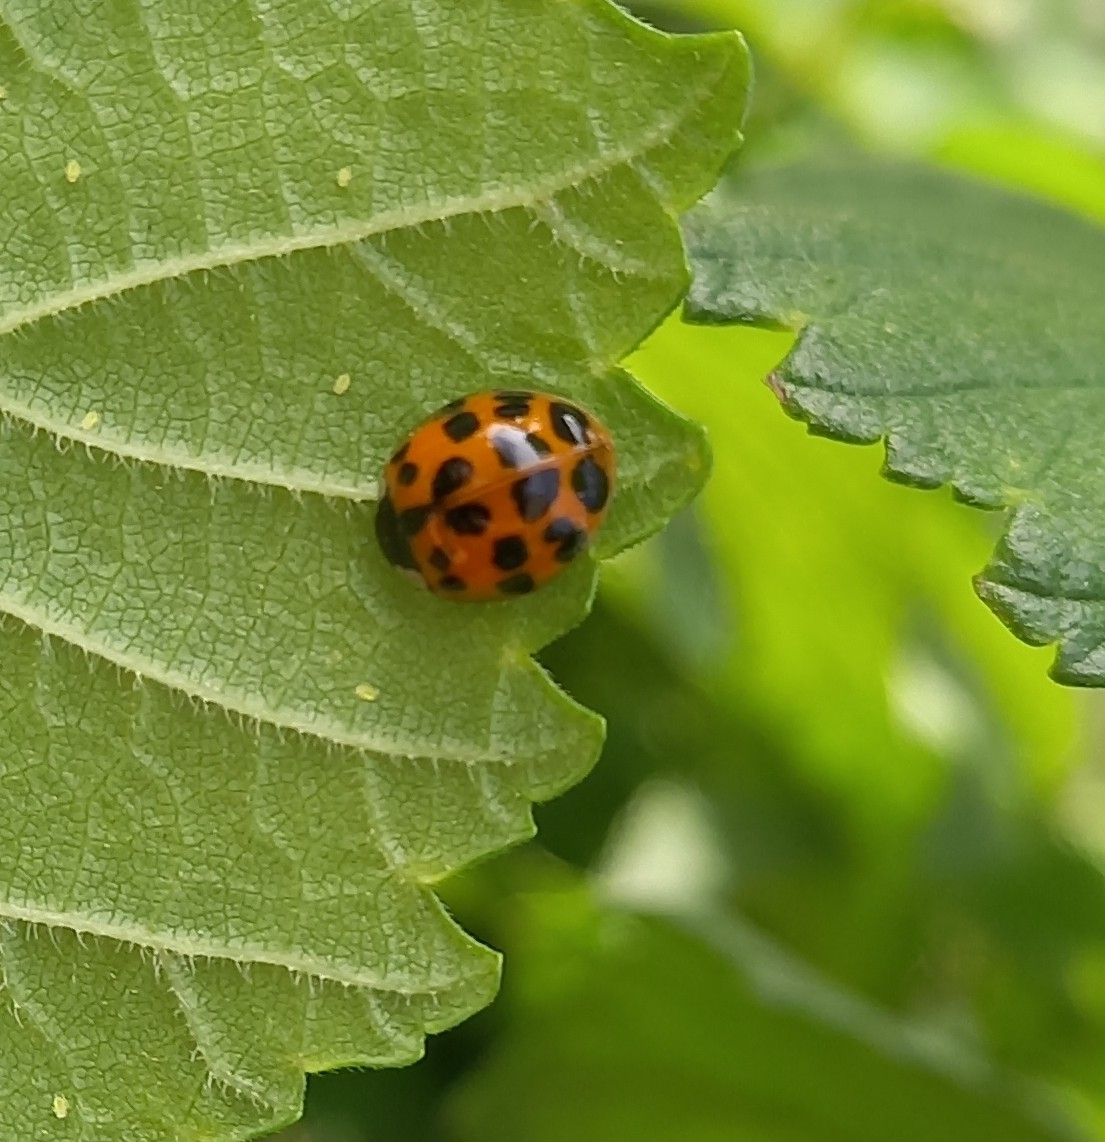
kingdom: Animalia
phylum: Arthropoda
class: Insecta
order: Coleoptera
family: Coccinellidae
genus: Harmonia
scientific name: Harmonia axyridis
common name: Harlequin ladybird
